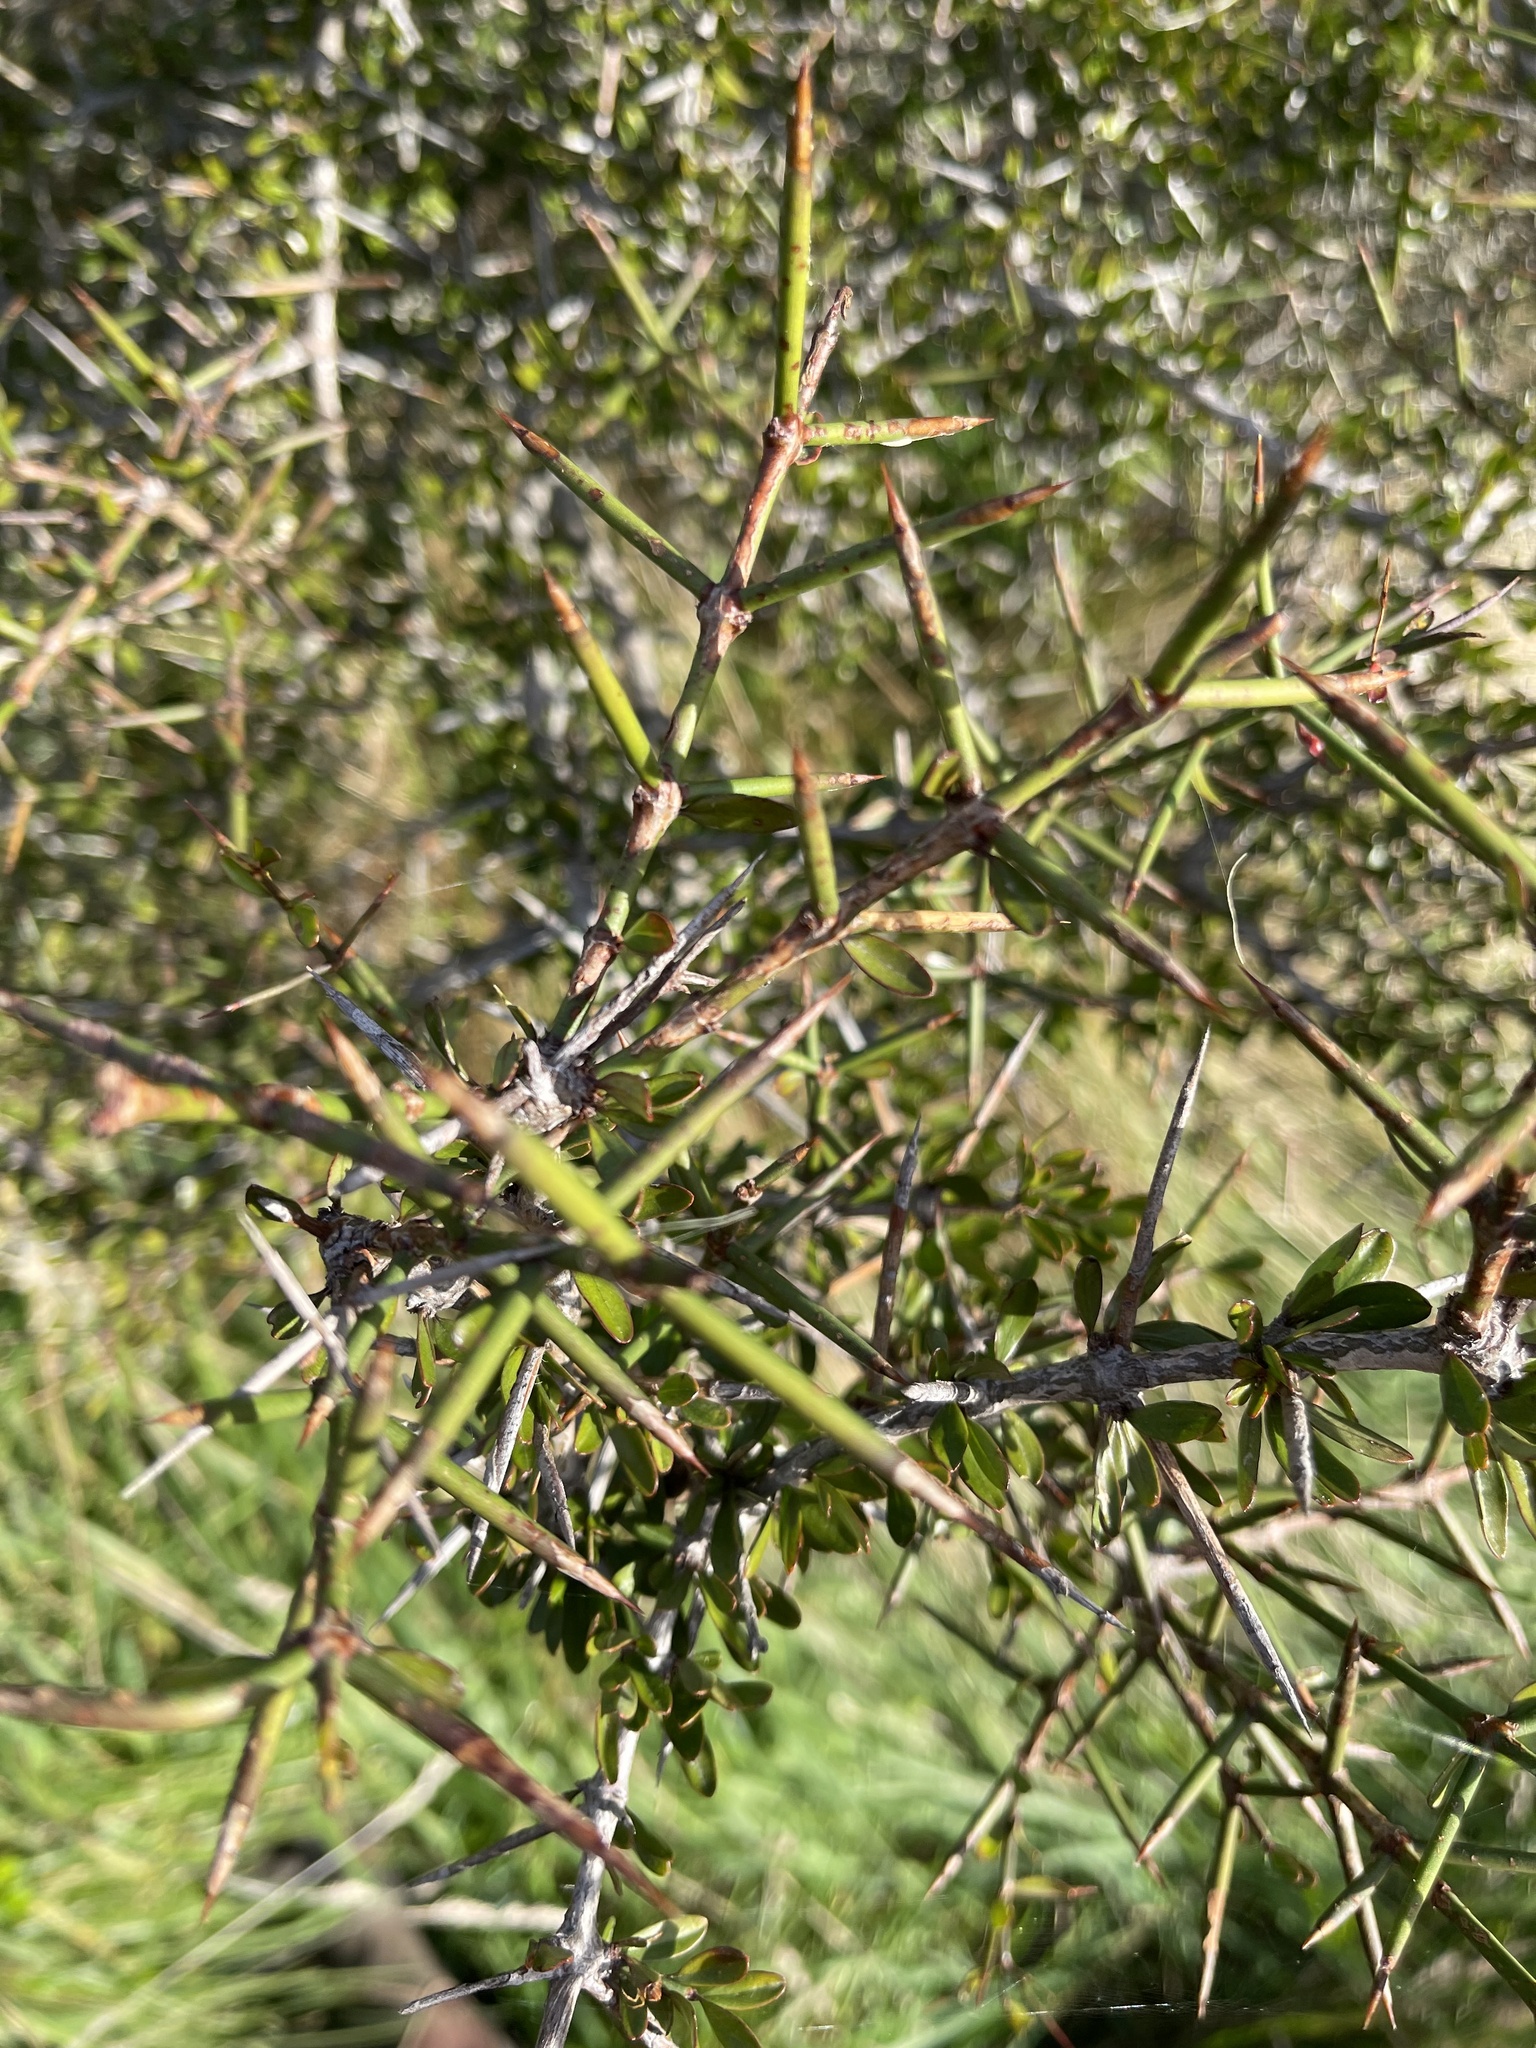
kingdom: Plantae
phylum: Tracheophyta
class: Magnoliopsida
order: Rosales
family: Rhamnaceae
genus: Discaria
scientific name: Discaria toumatou
